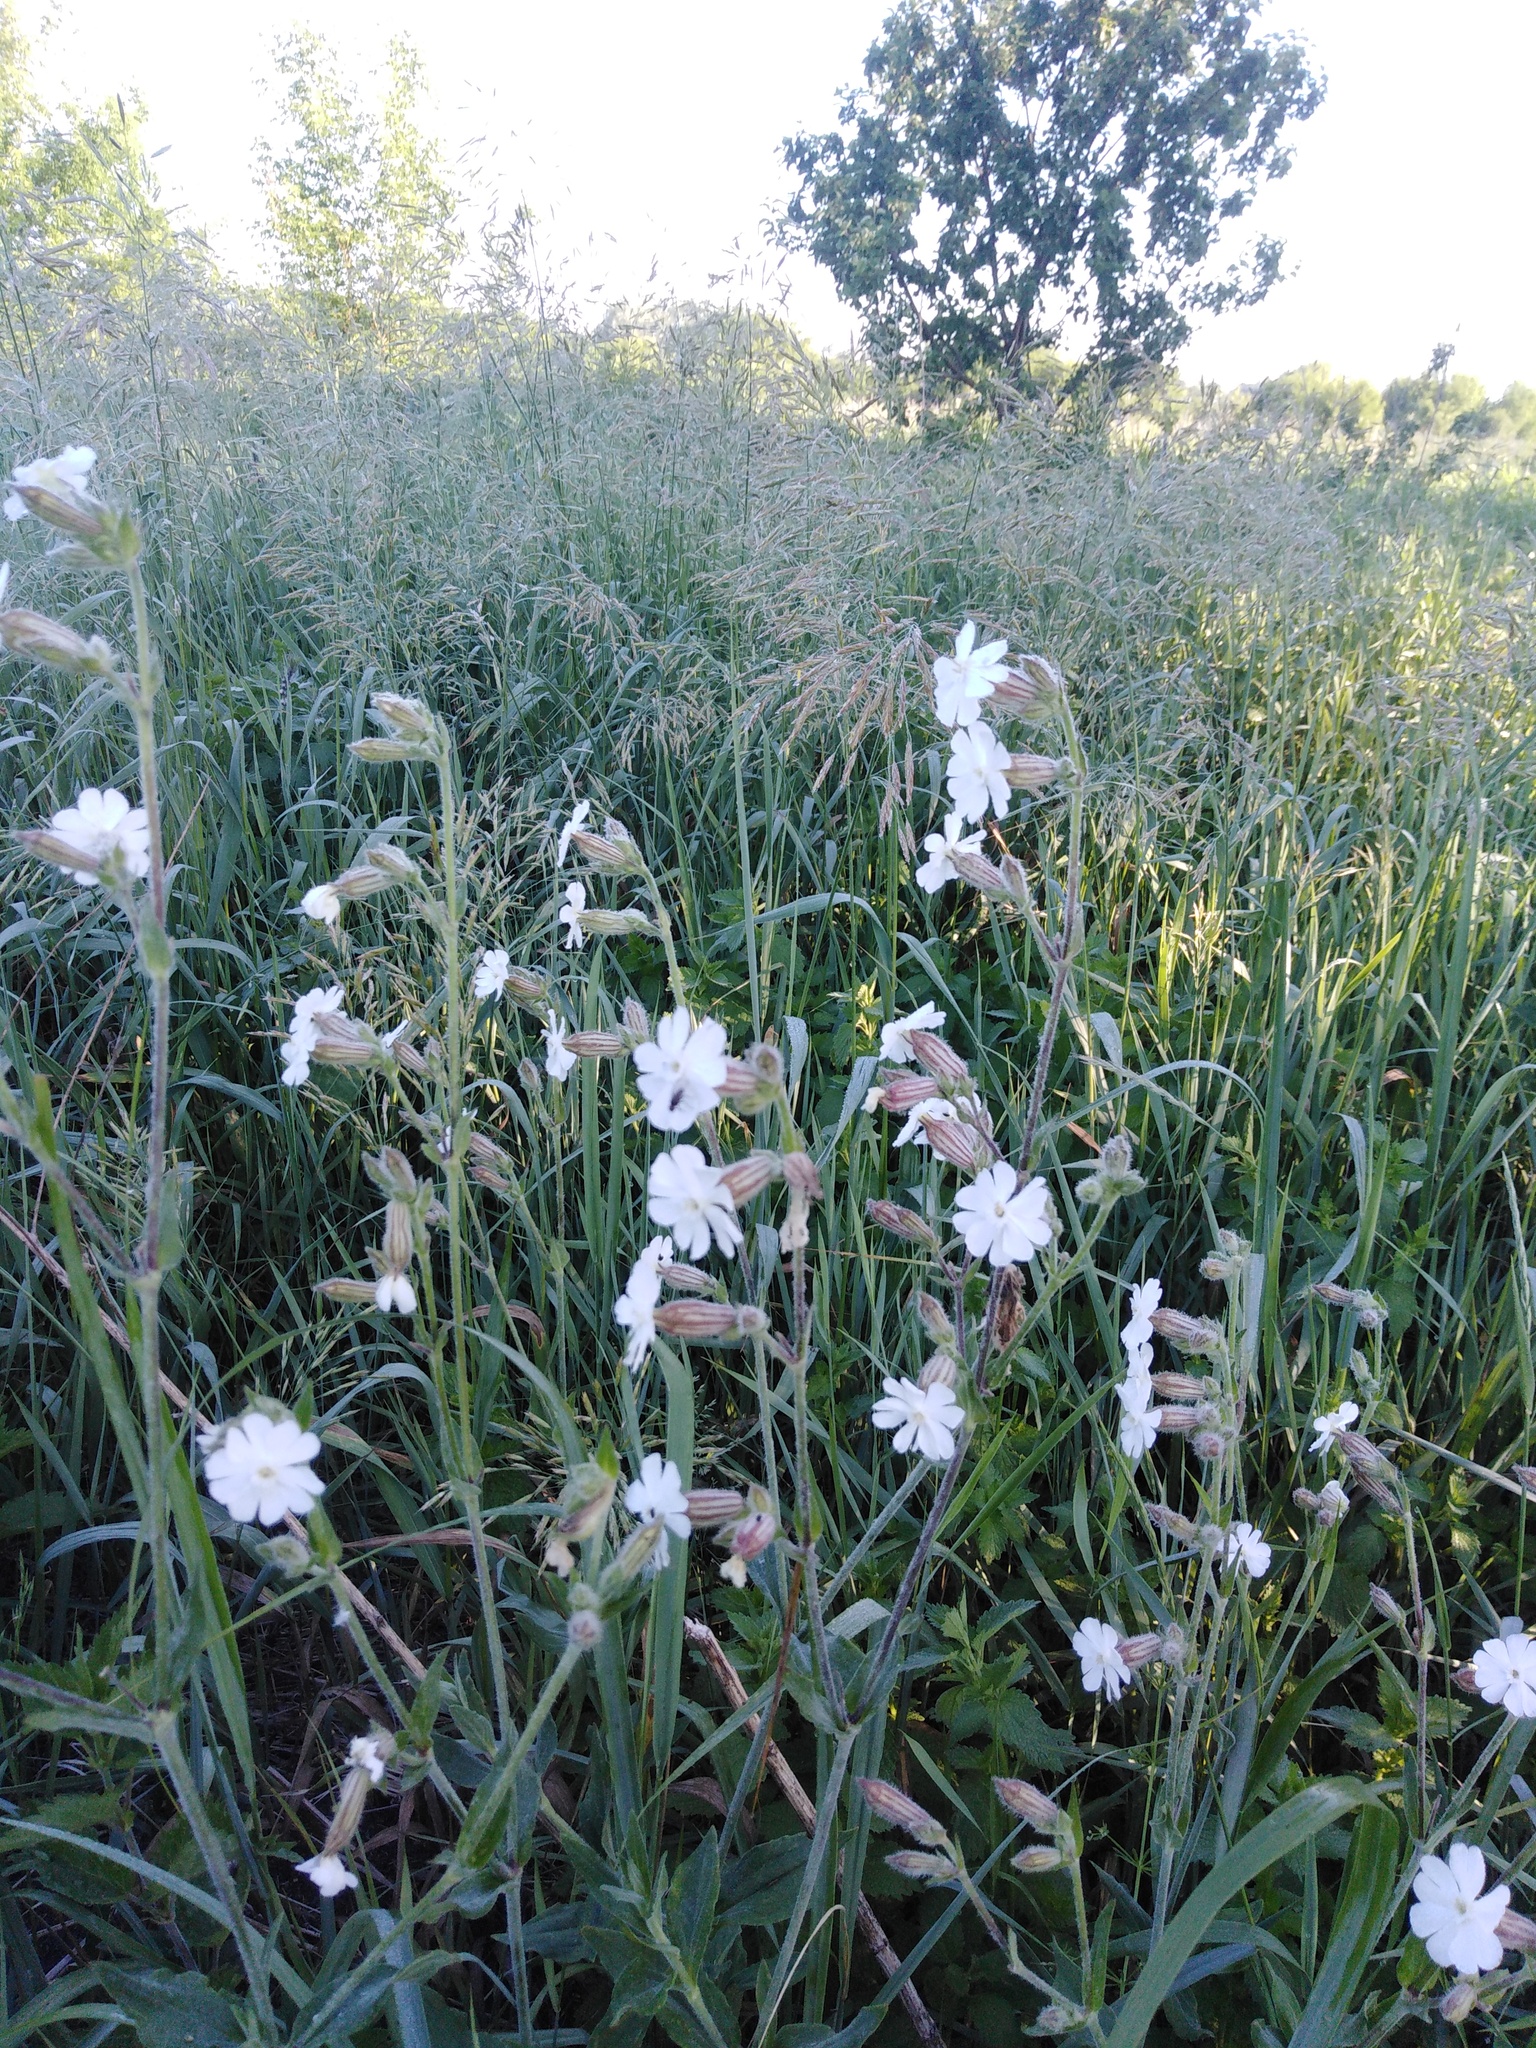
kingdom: Plantae
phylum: Tracheophyta
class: Magnoliopsida
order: Caryophyllales
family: Caryophyllaceae
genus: Silene
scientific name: Silene latifolia
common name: White campion
